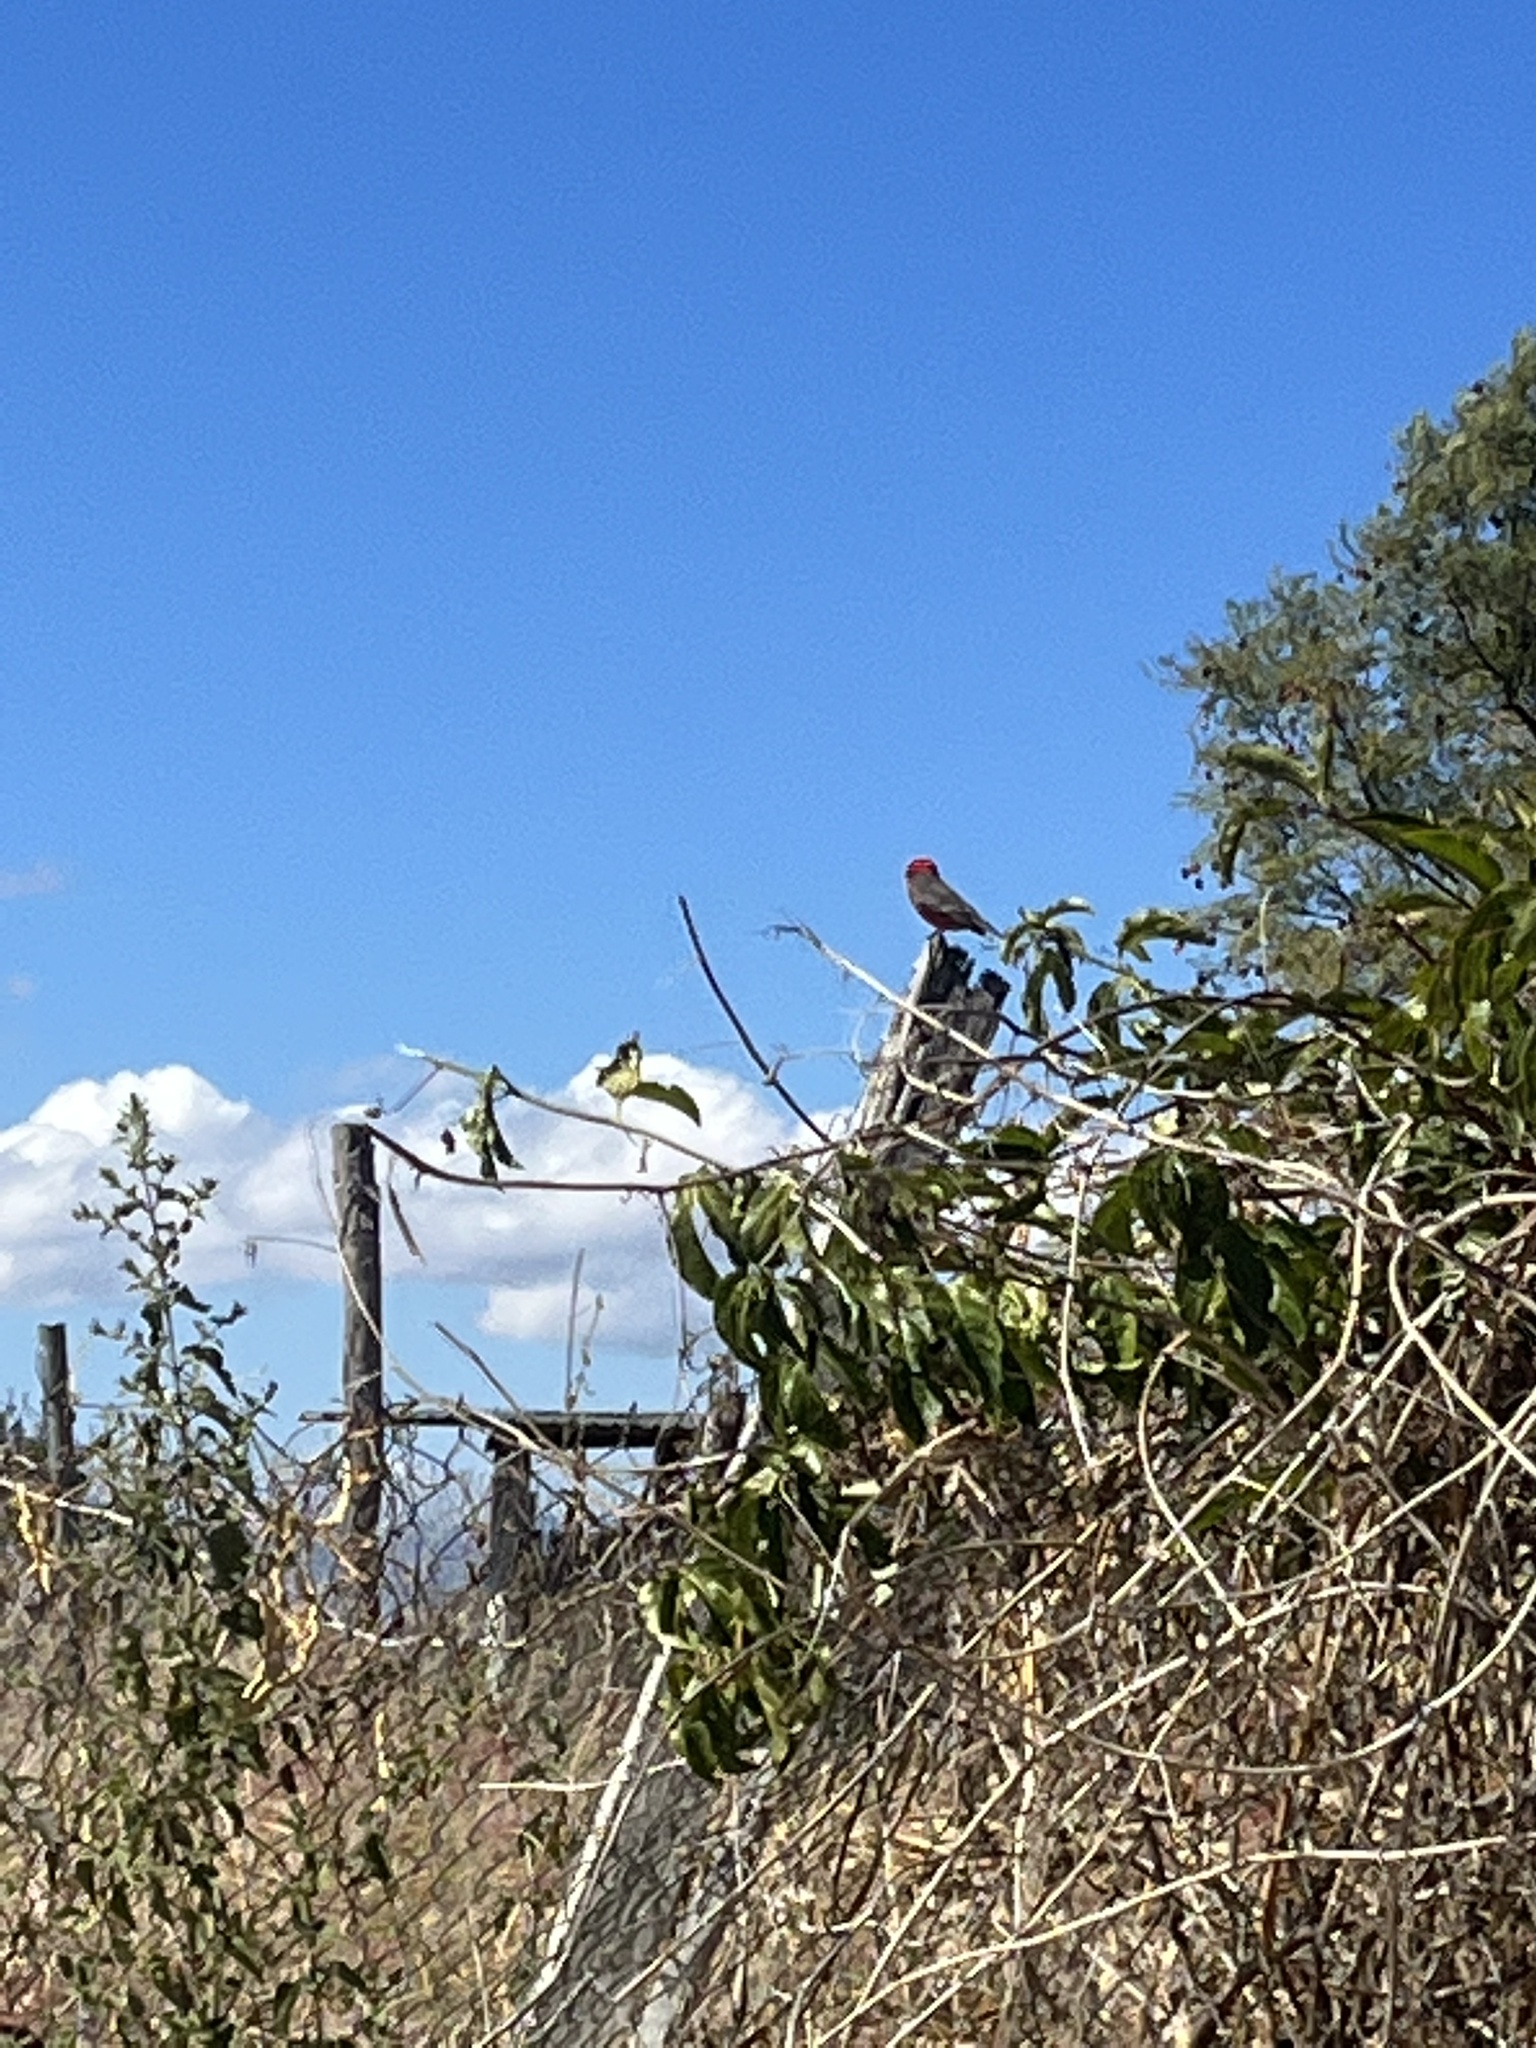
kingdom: Animalia
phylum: Chordata
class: Aves
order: Passeriformes
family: Tyrannidae
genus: Pyrocephalus
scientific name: Pyrocephalus rubinus
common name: Vermilion flycatcher
